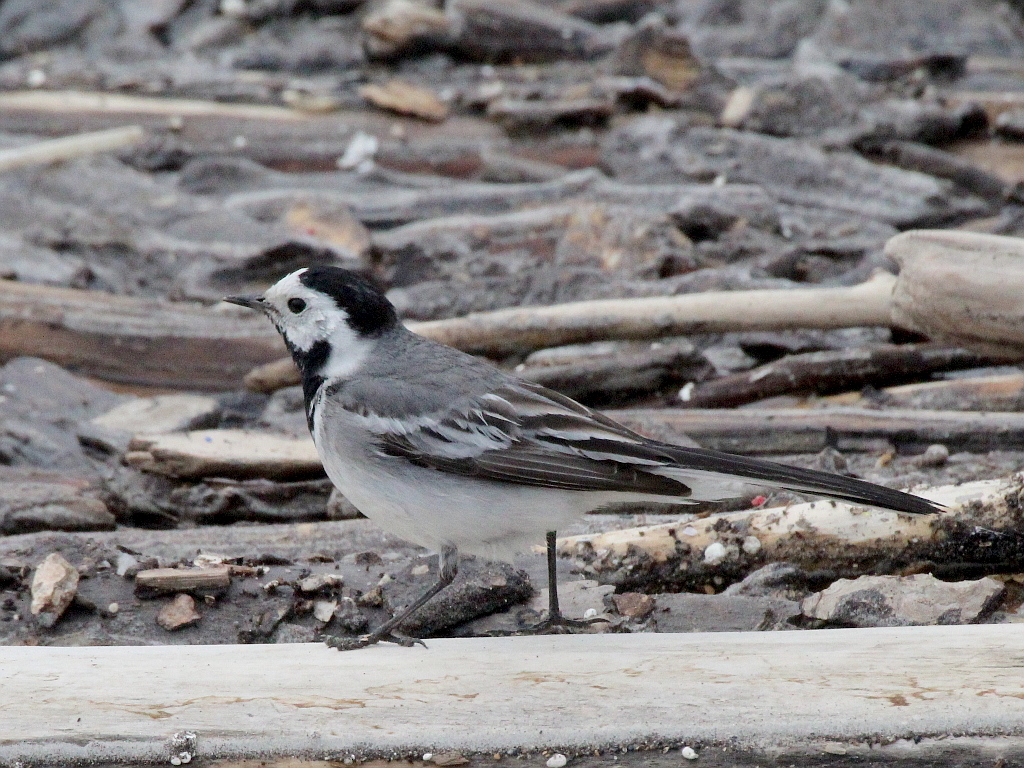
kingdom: Animalia
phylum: Chordata
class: Aves
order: Passeriformes
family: Motacillidae
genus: Motacilla
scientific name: Motacilla alba
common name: White wagtail
